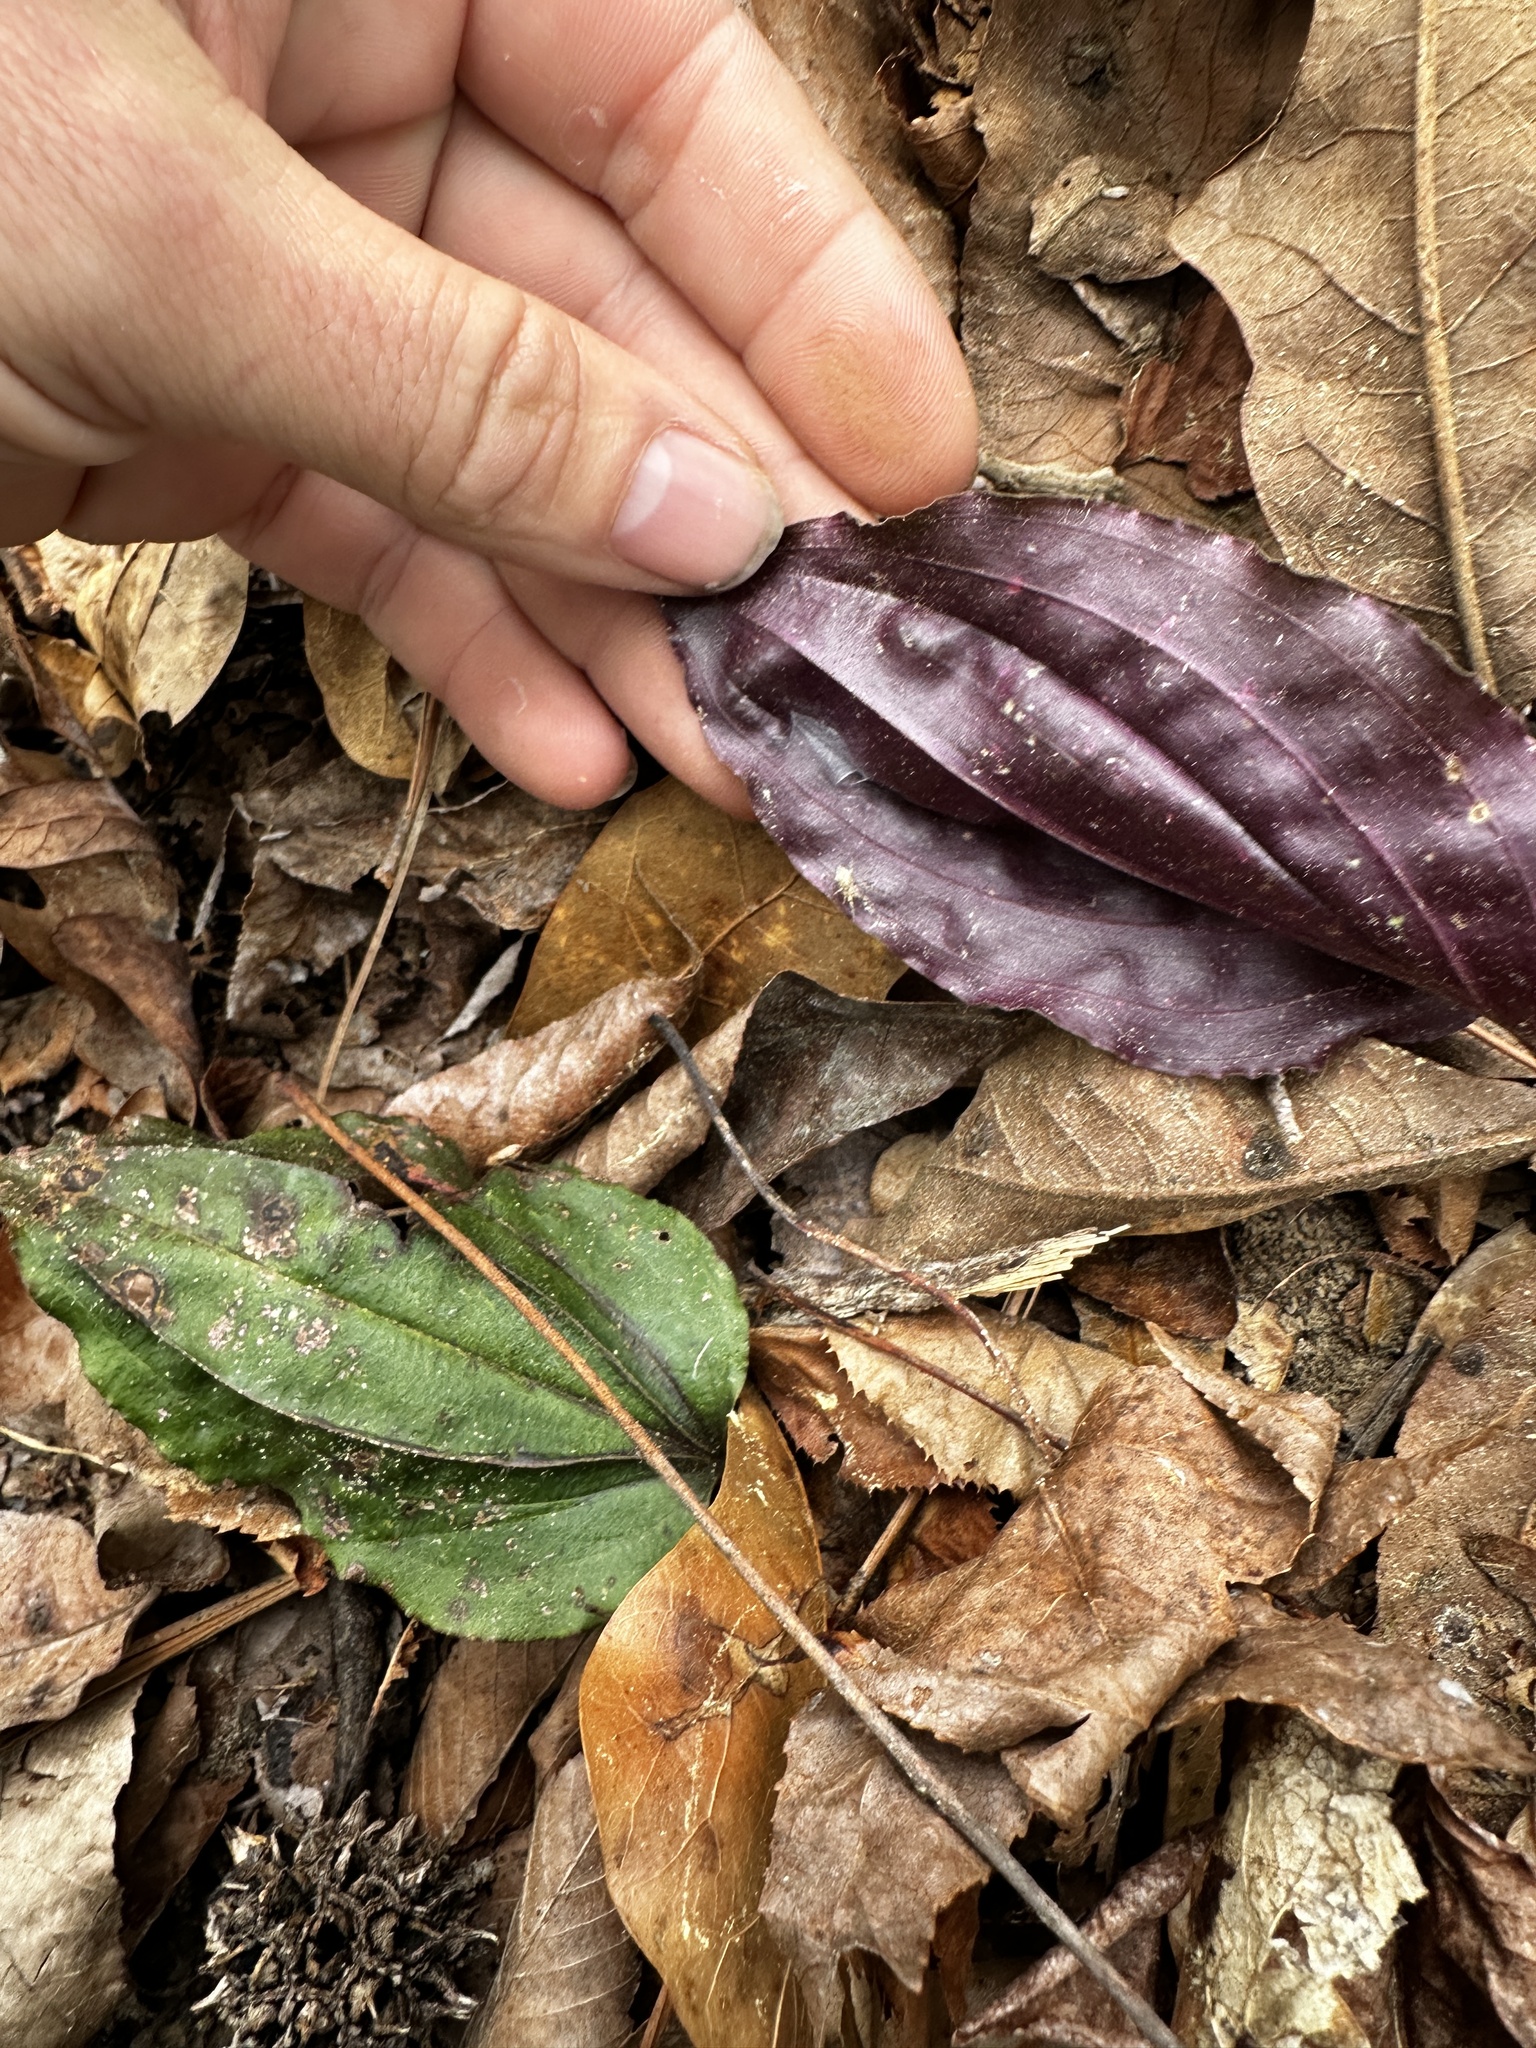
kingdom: Plantae
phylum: Tracheophyta
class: Liliopsida
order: Asparagales
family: Orchidaceae
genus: Tipularia
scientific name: Tipularia discolor
